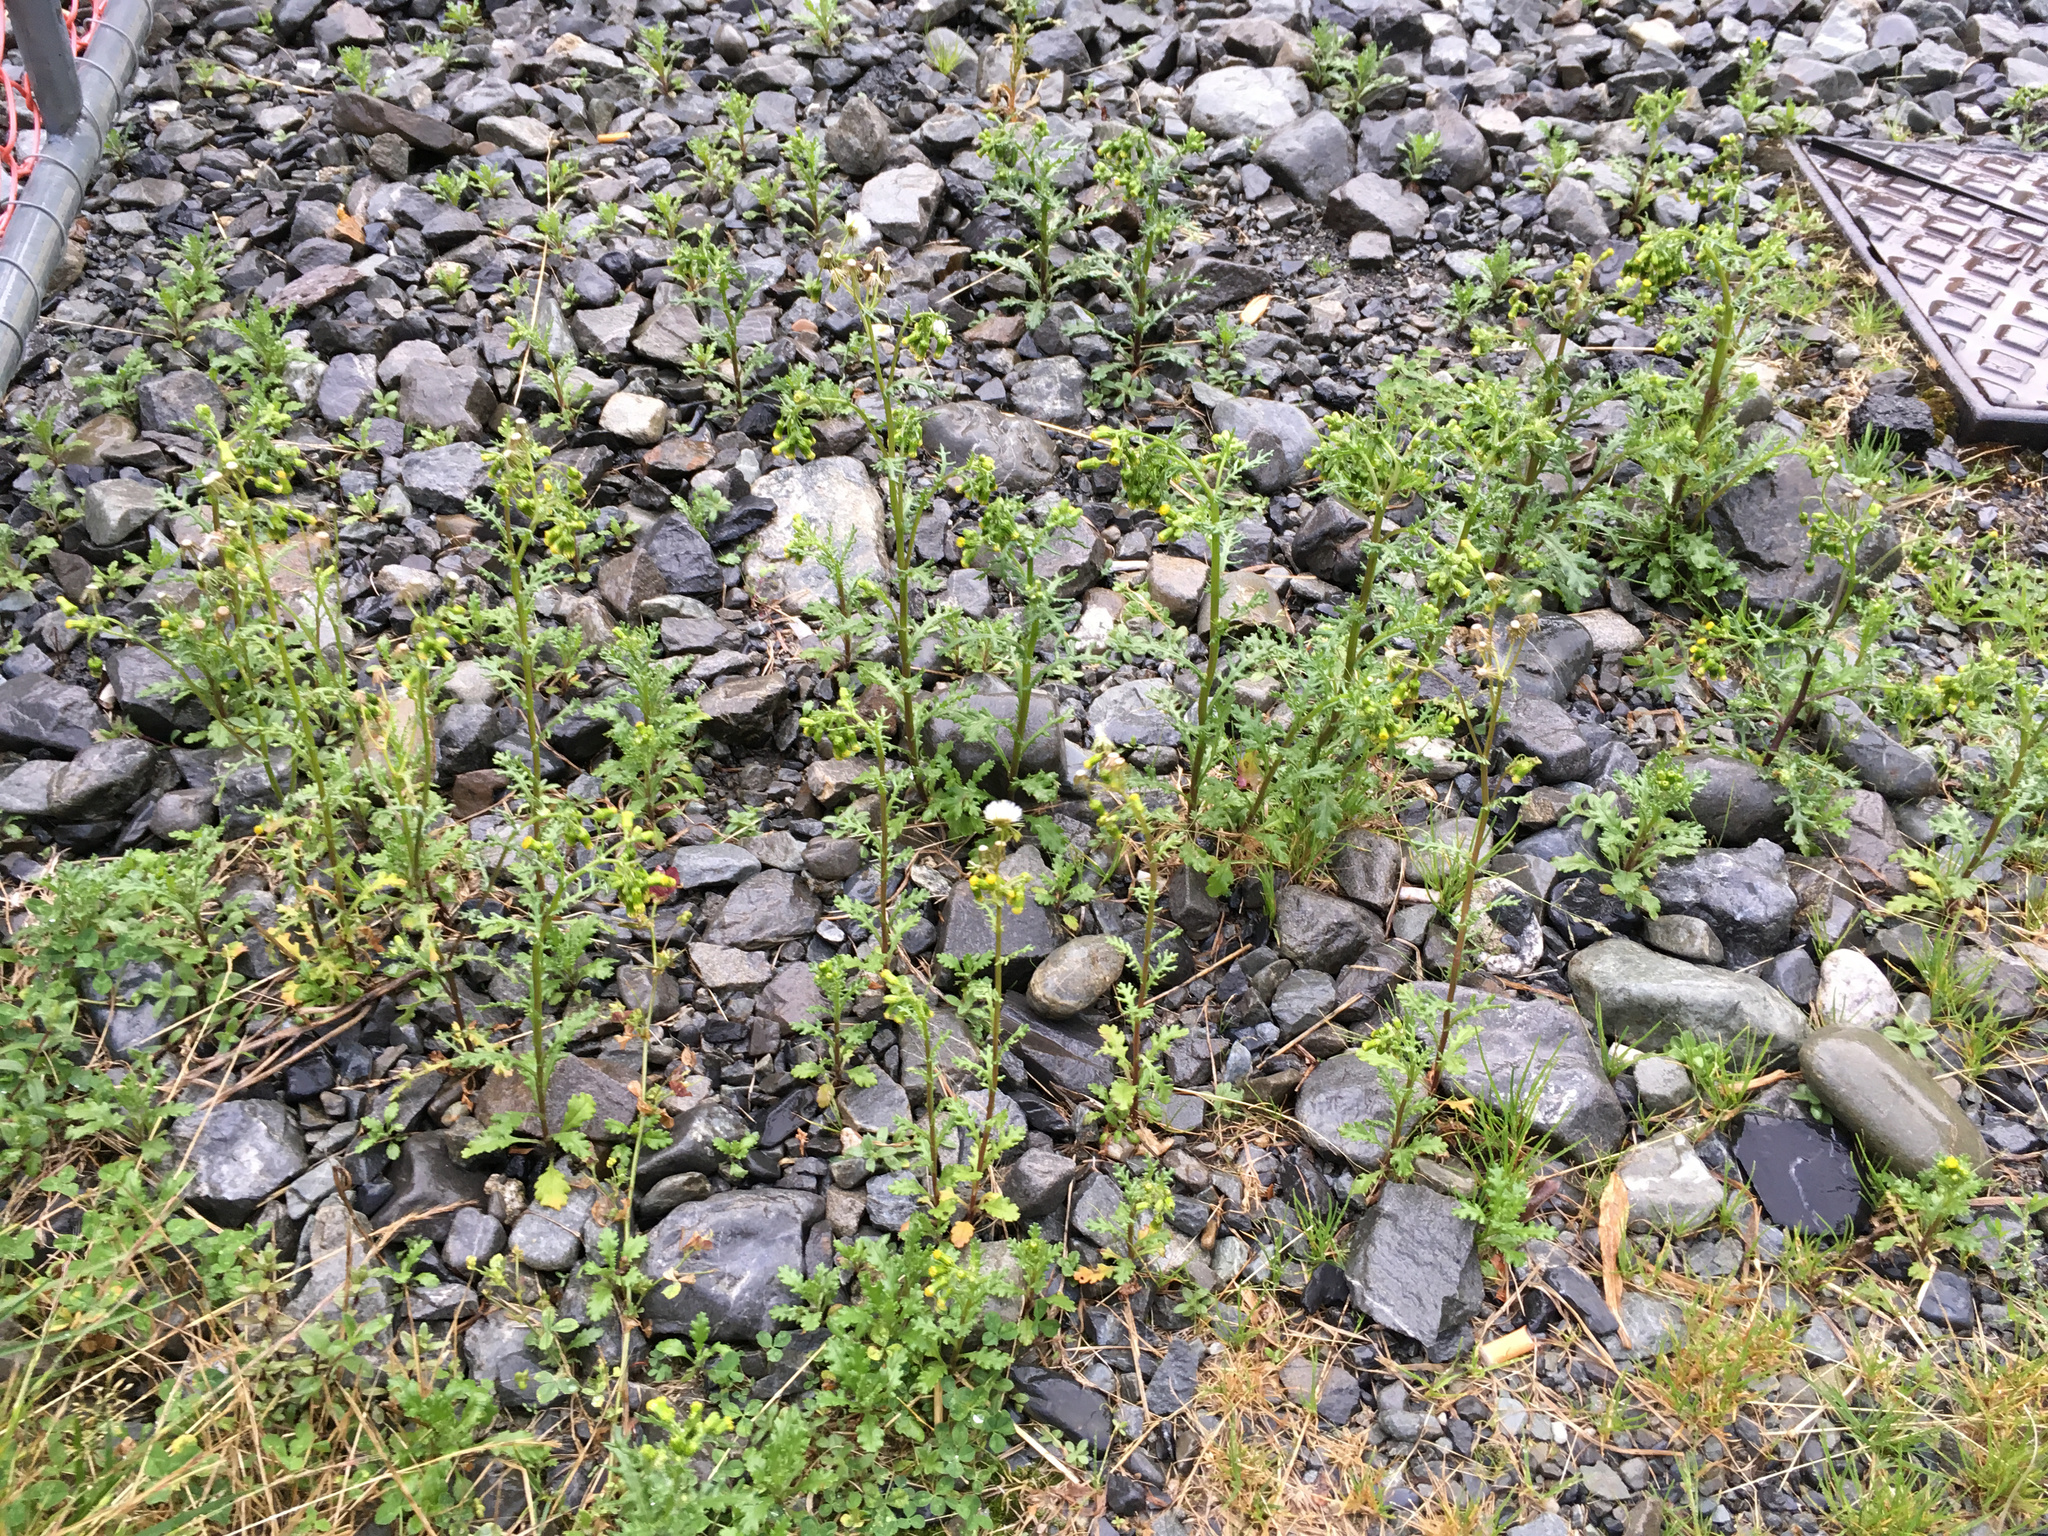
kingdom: Plantae
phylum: Tracheophyta
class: Magnoliopsida
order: Asterales
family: Asteraceae
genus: Senecio
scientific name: Senecio vulgaris
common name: Old-man-in-the-spring
